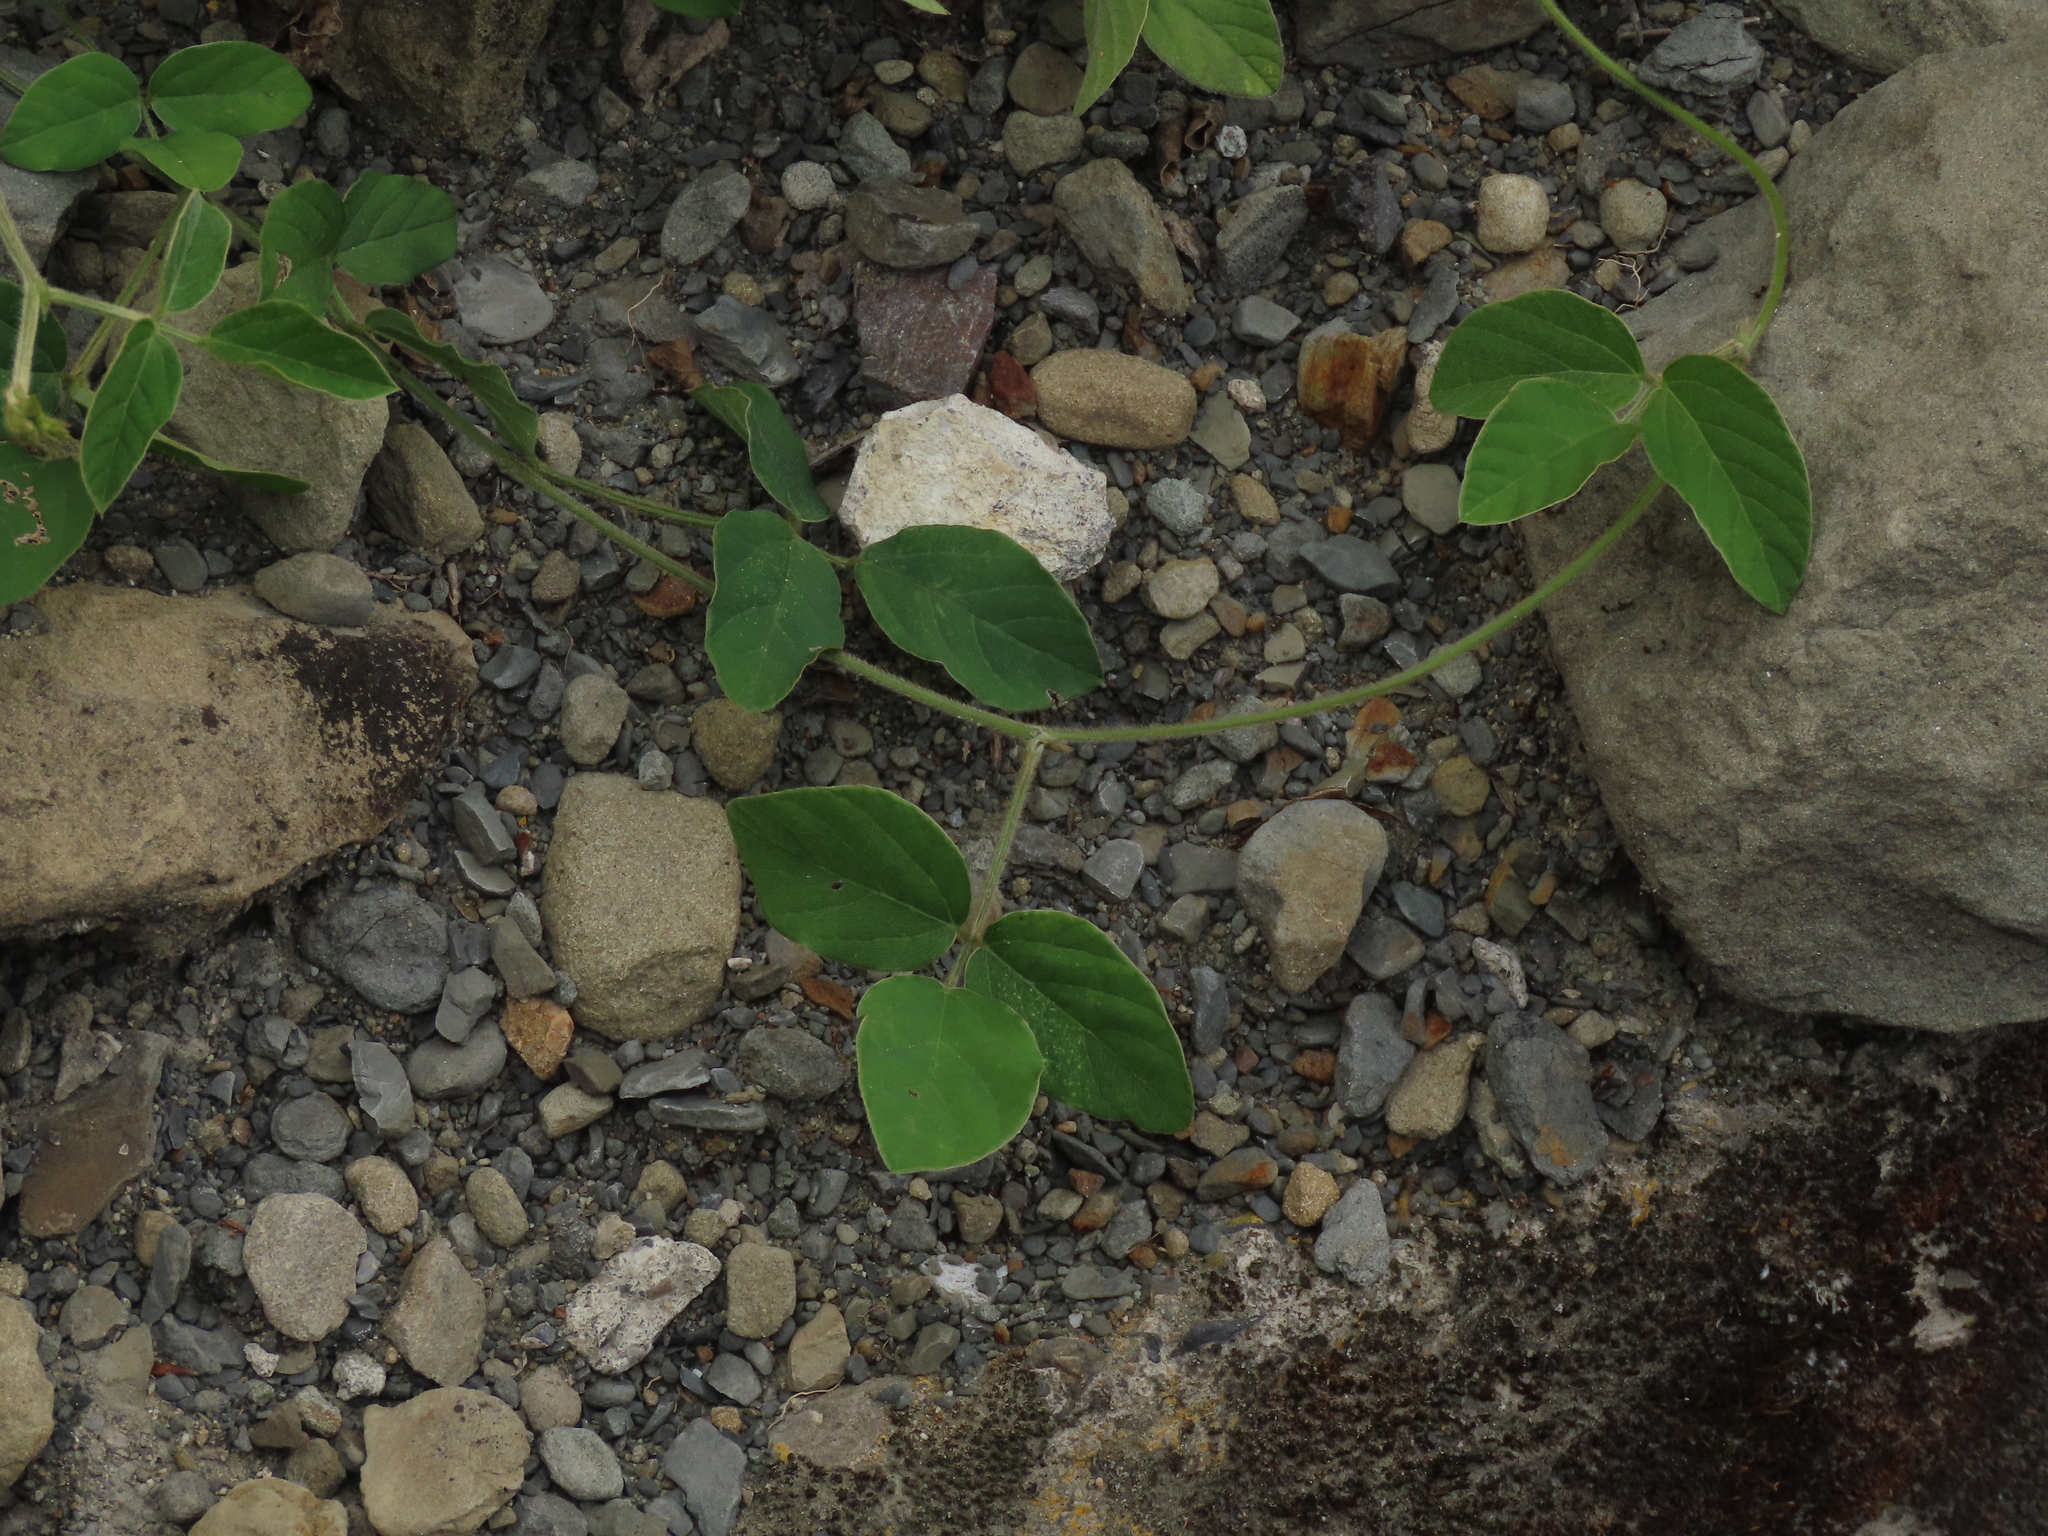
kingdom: Plantae
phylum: Tracheophyta
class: Magnoliopsida
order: Fabales
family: Fabaceae
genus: Neonotonia
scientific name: Neonotonia wightii
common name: Perennial soybean
